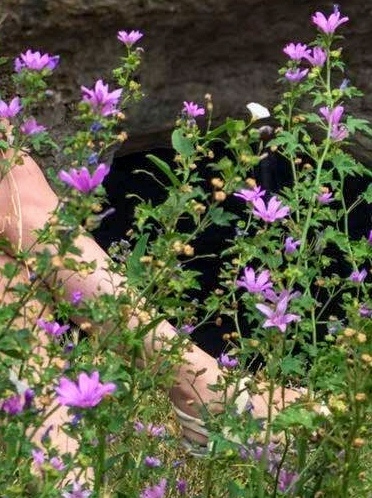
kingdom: Plantae
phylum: Tracheophyta
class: Magnoliopsida
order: Malvales
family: Malvaceae
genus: Malva
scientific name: Malva sylvestris
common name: Common mallow
